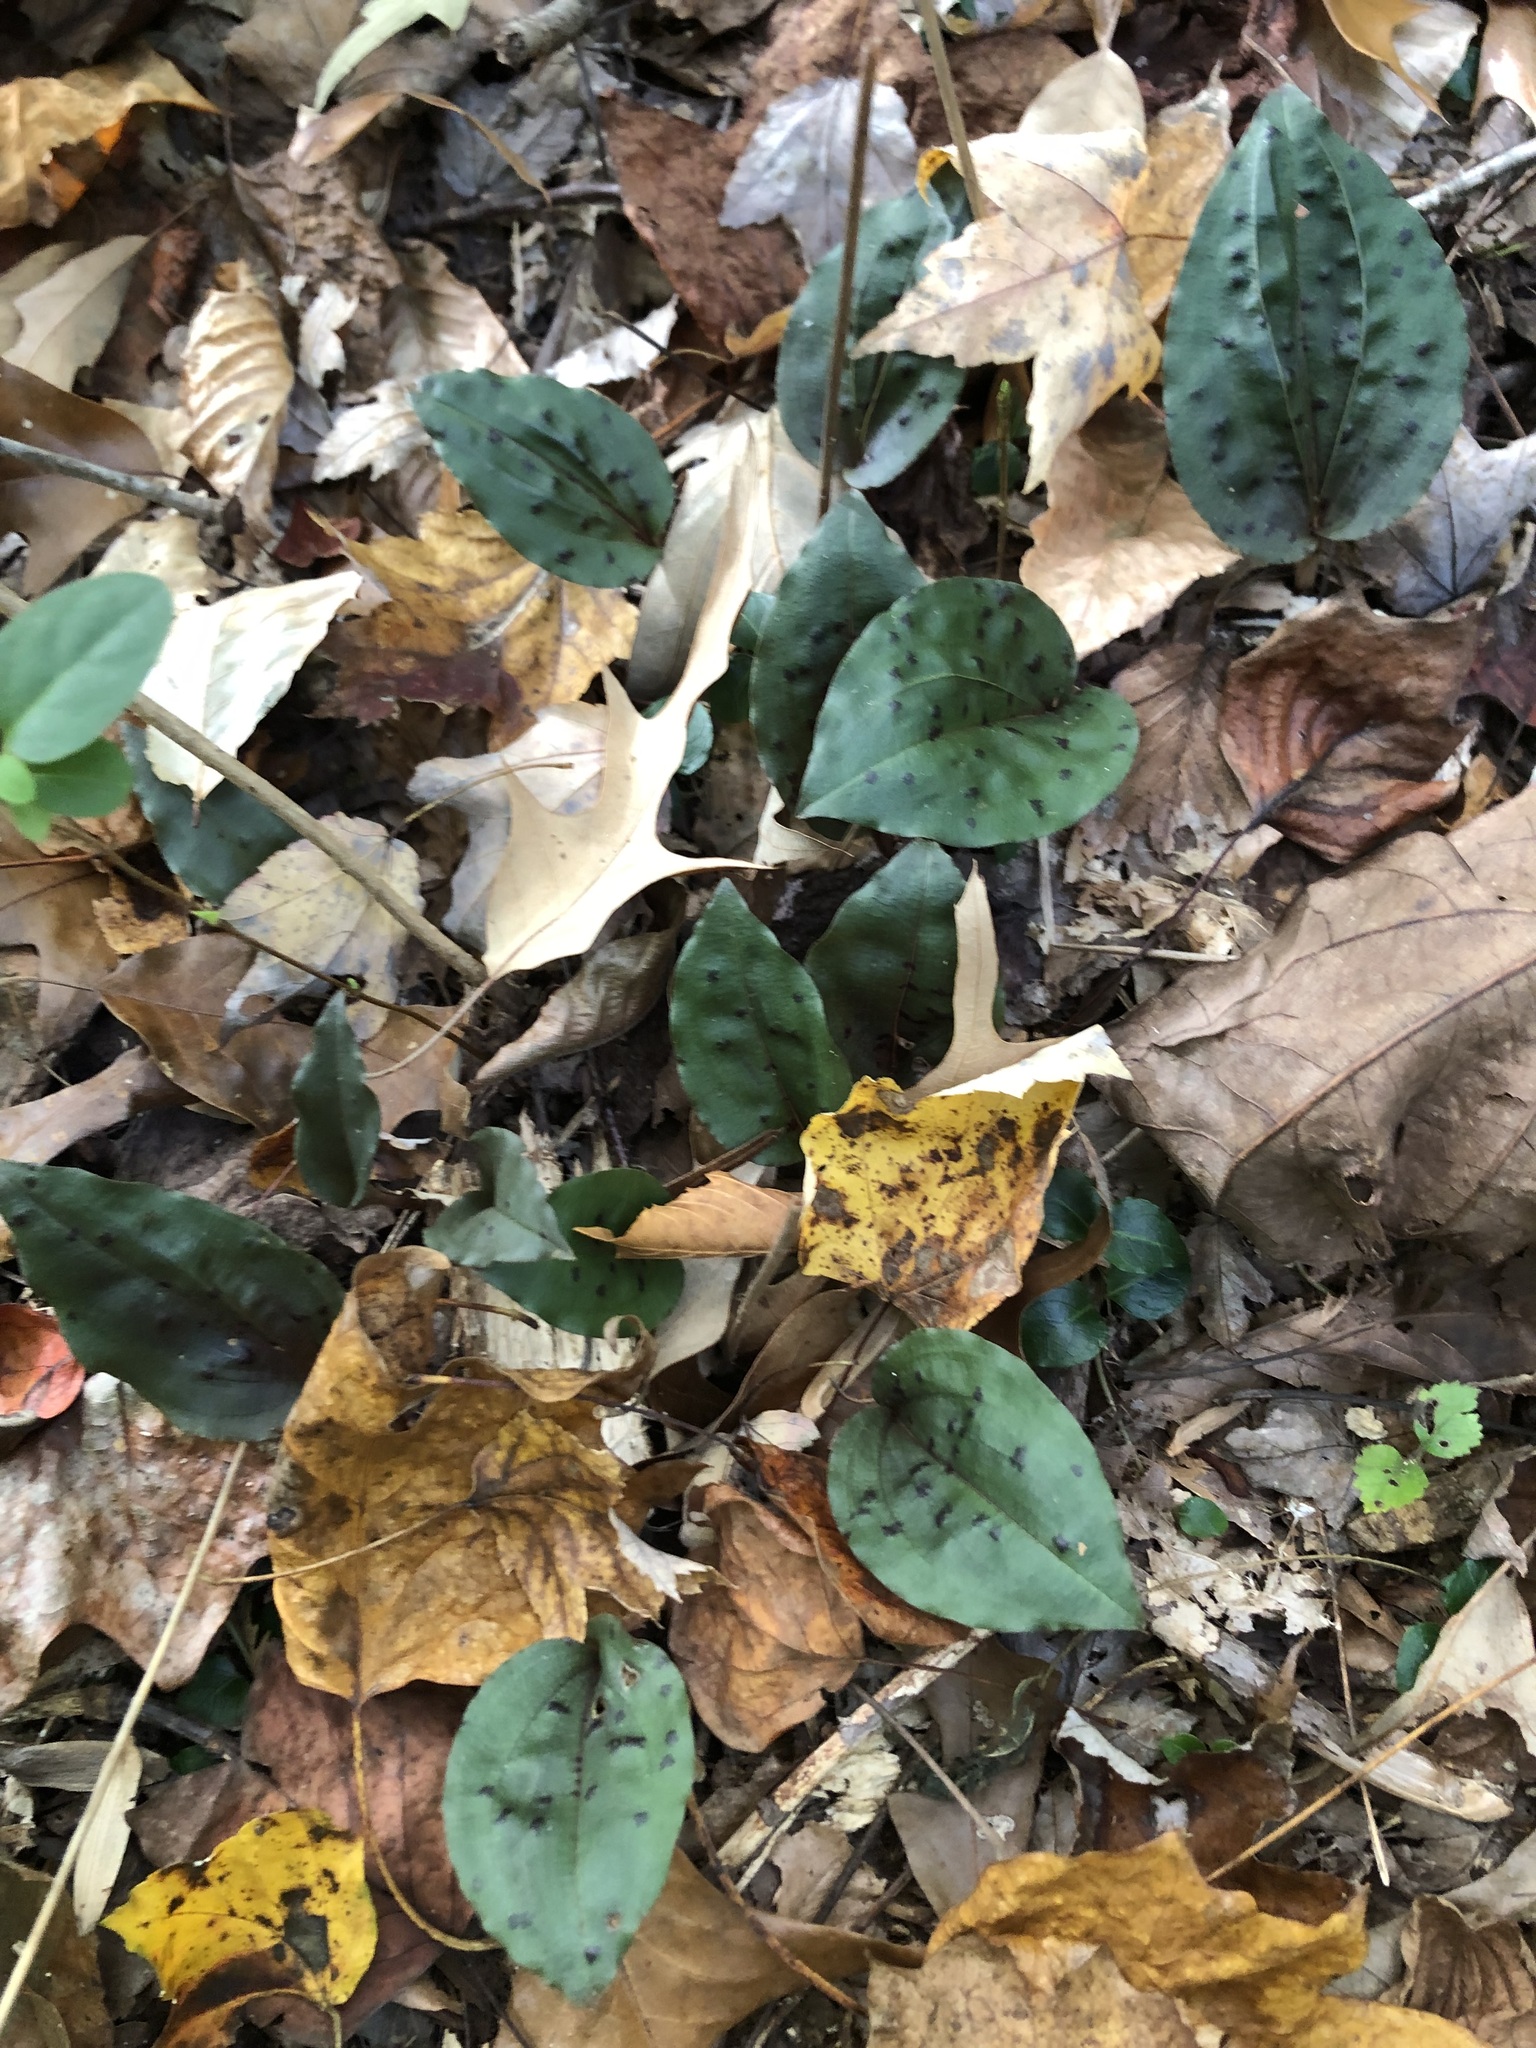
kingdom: Plantae
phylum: Tracheophyta
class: Liliopsida
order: Asparagales
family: Orchidaceae
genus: Tipularia
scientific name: Tipularia discolor
